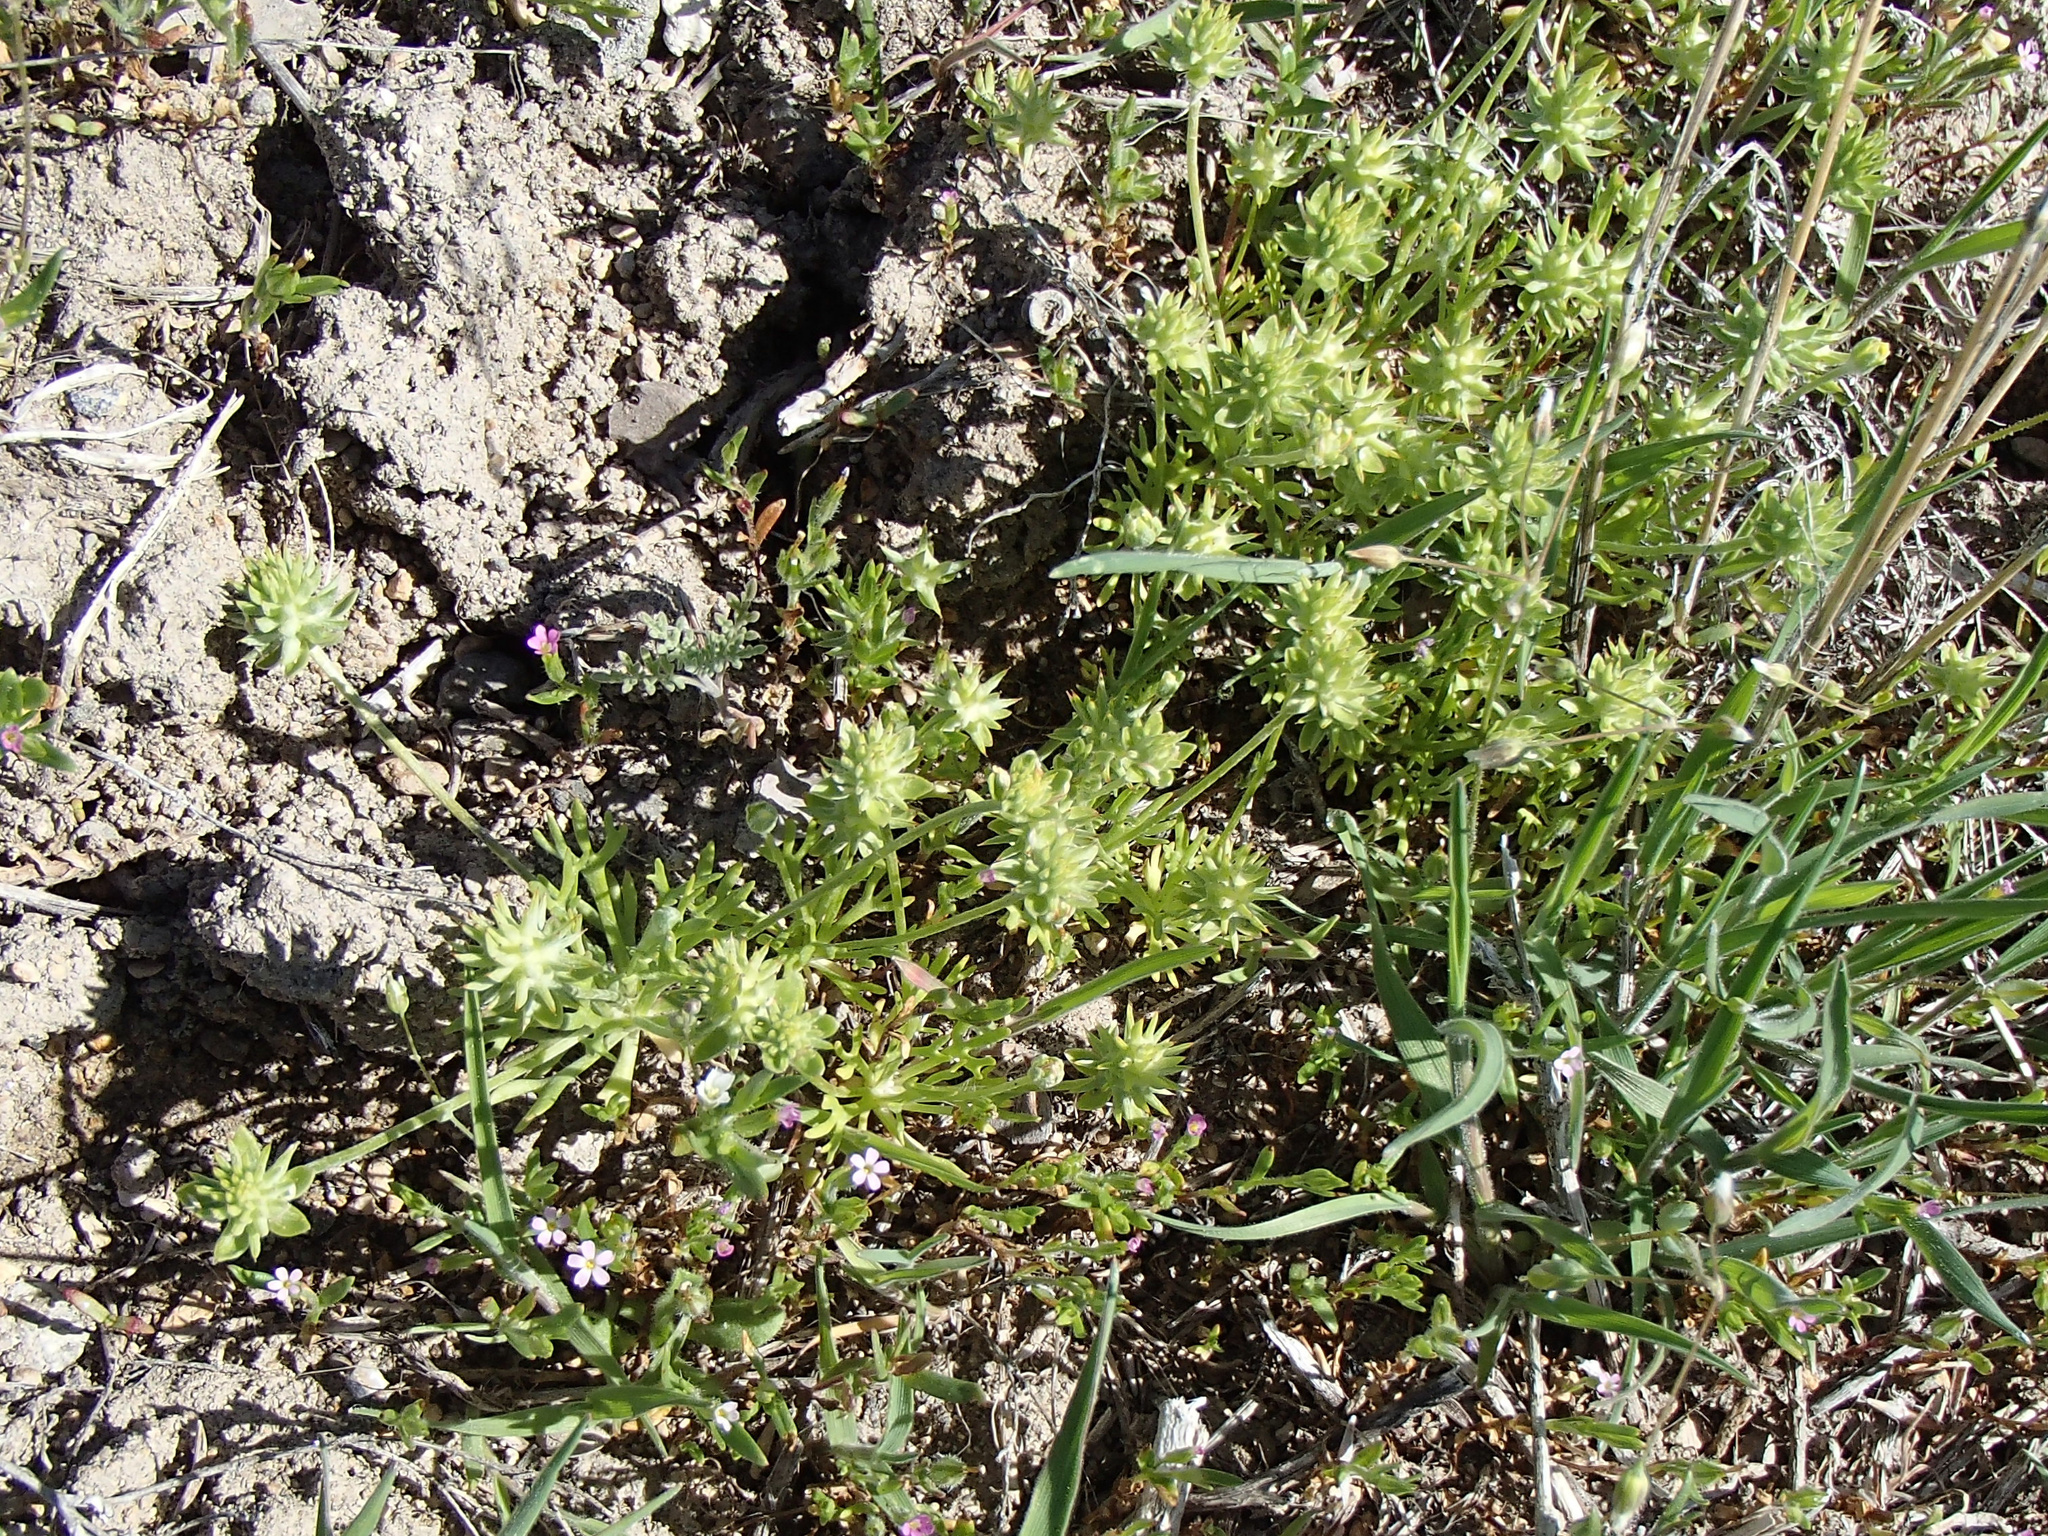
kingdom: Plantae
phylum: Tracheophyta
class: Magnoliopsida
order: Ranunculales
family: Ranunculaceae
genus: Ceratocephala
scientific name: Ceratocephala orthoceras
